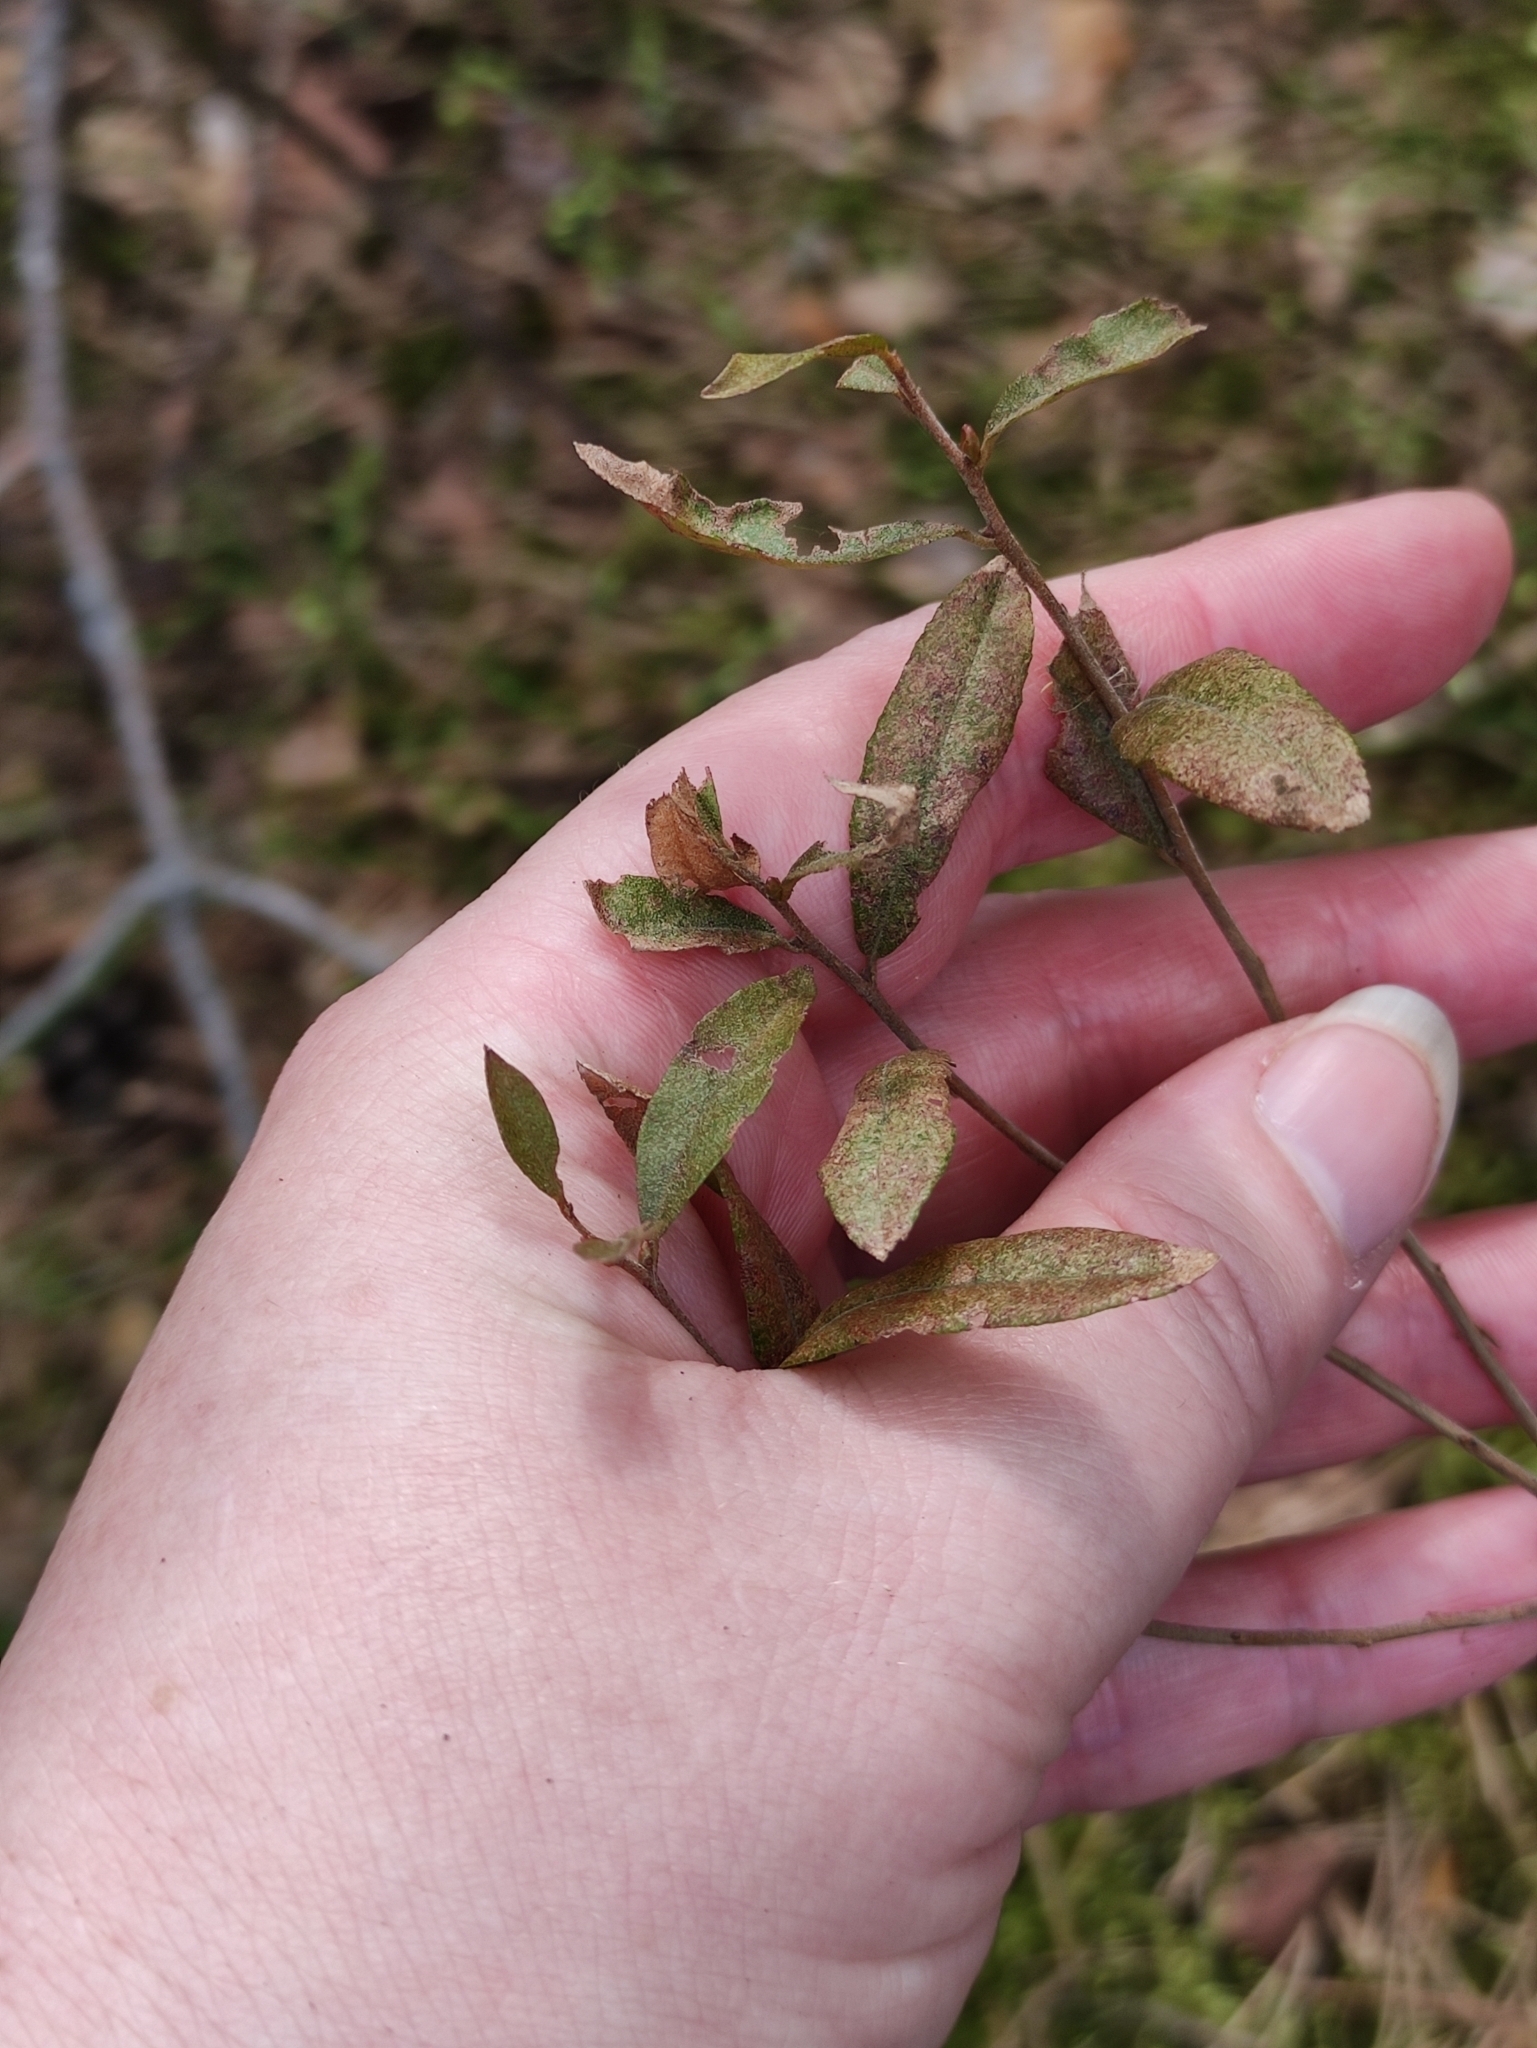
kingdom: Plantae
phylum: Tracheophyta
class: Magnoliopsida
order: Ericales
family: Ericaceae
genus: Chamaedaphne
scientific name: Chamaedaphne calyculata
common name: Leatherleaf
